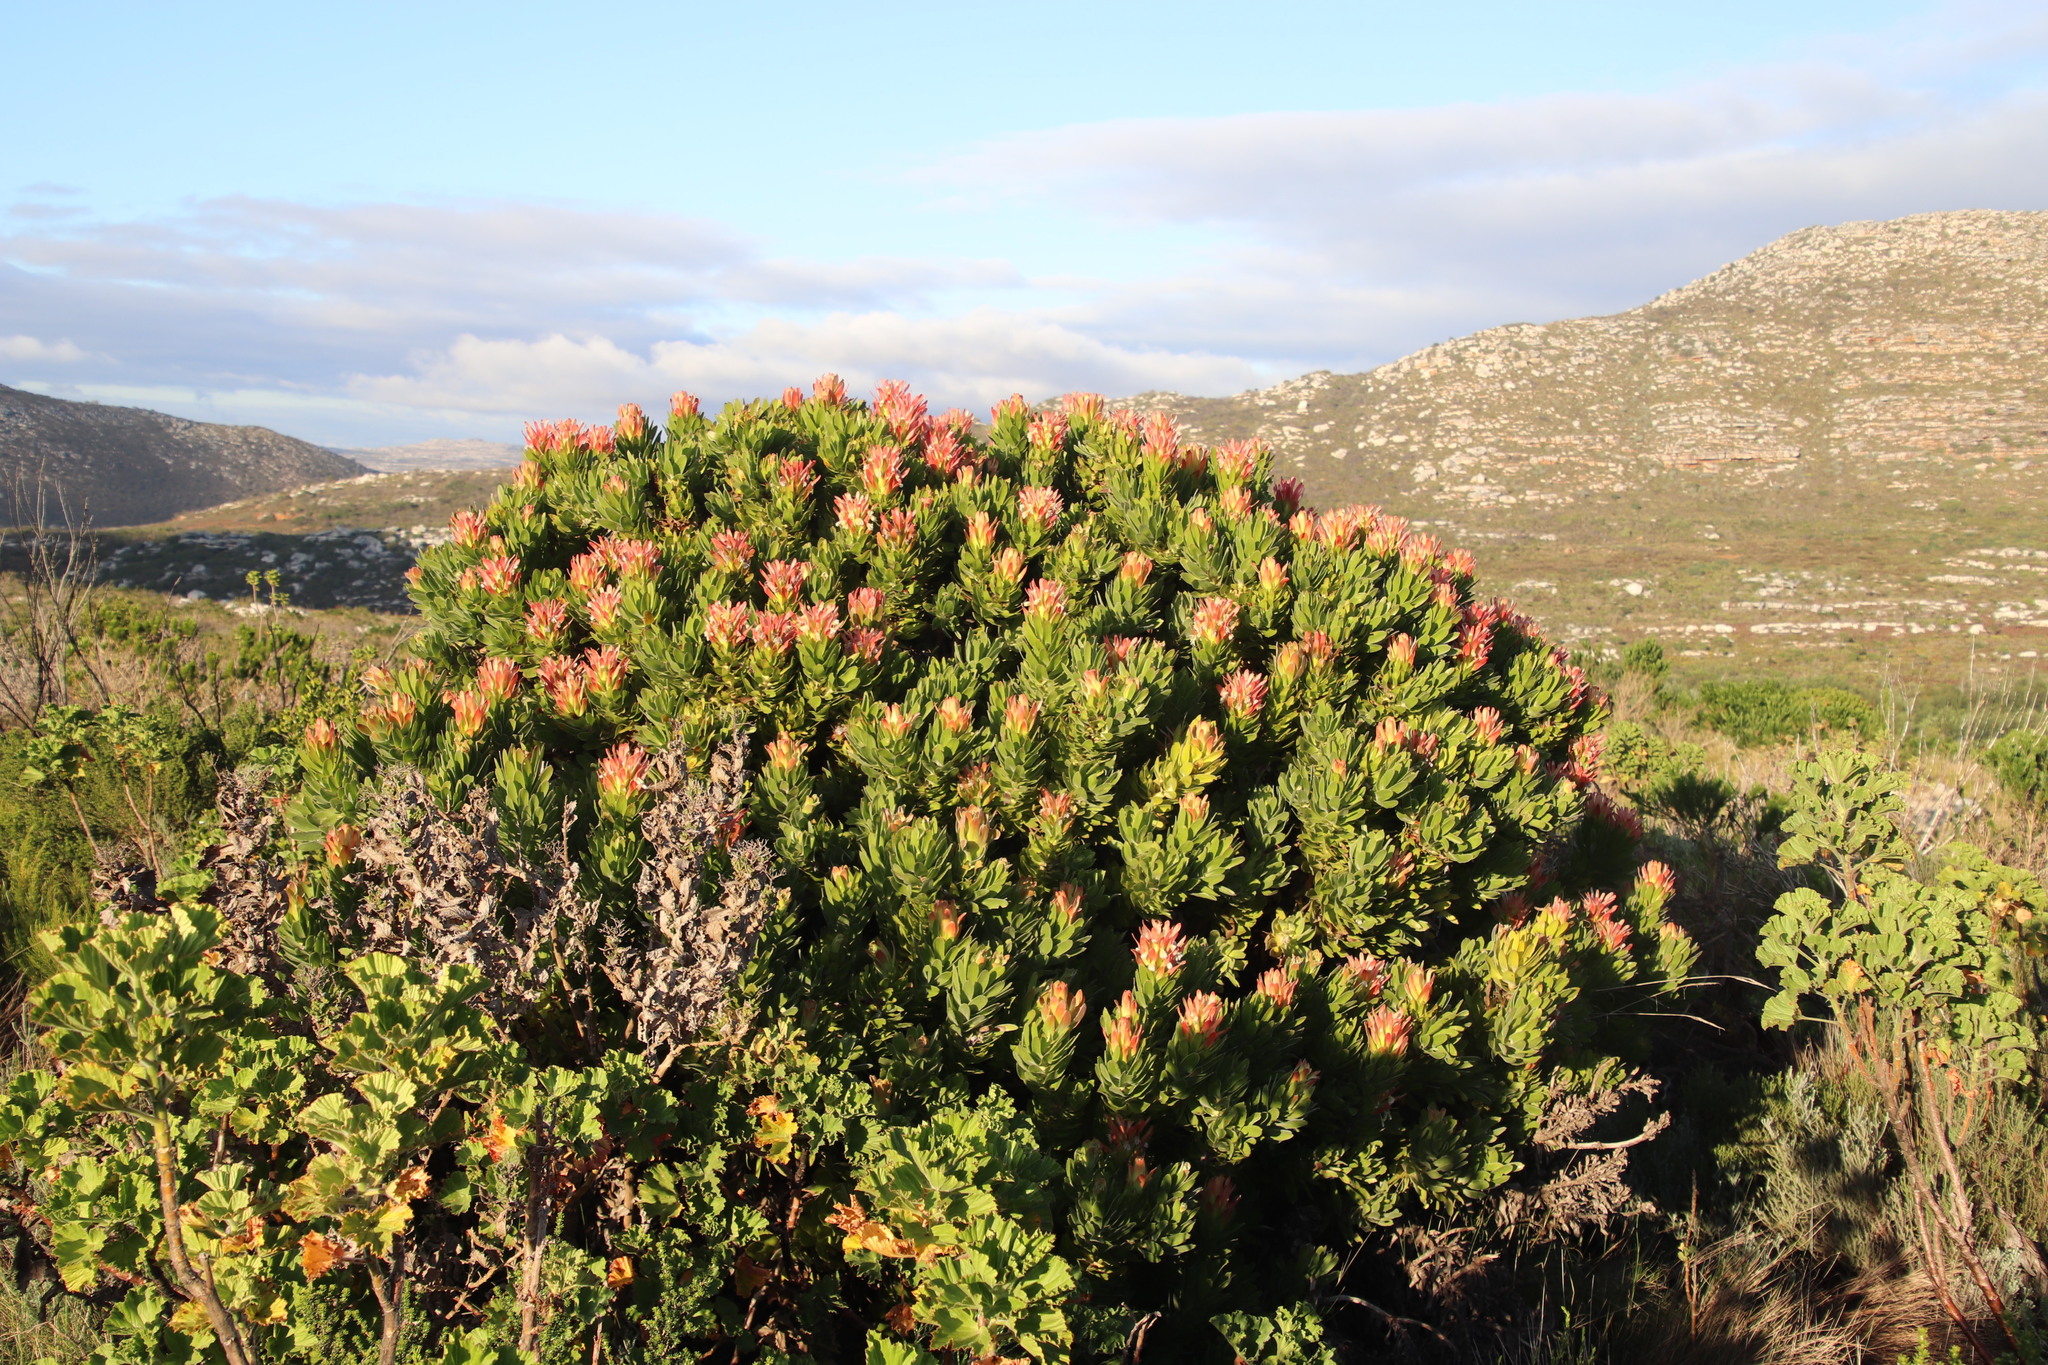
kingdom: Plantae
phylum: Tracheophyta
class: Magnoliopsida
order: Proteales
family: Proteaceae
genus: Mimetes
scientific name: Mimetes fimbriifolius
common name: Fringed bottlebrush
